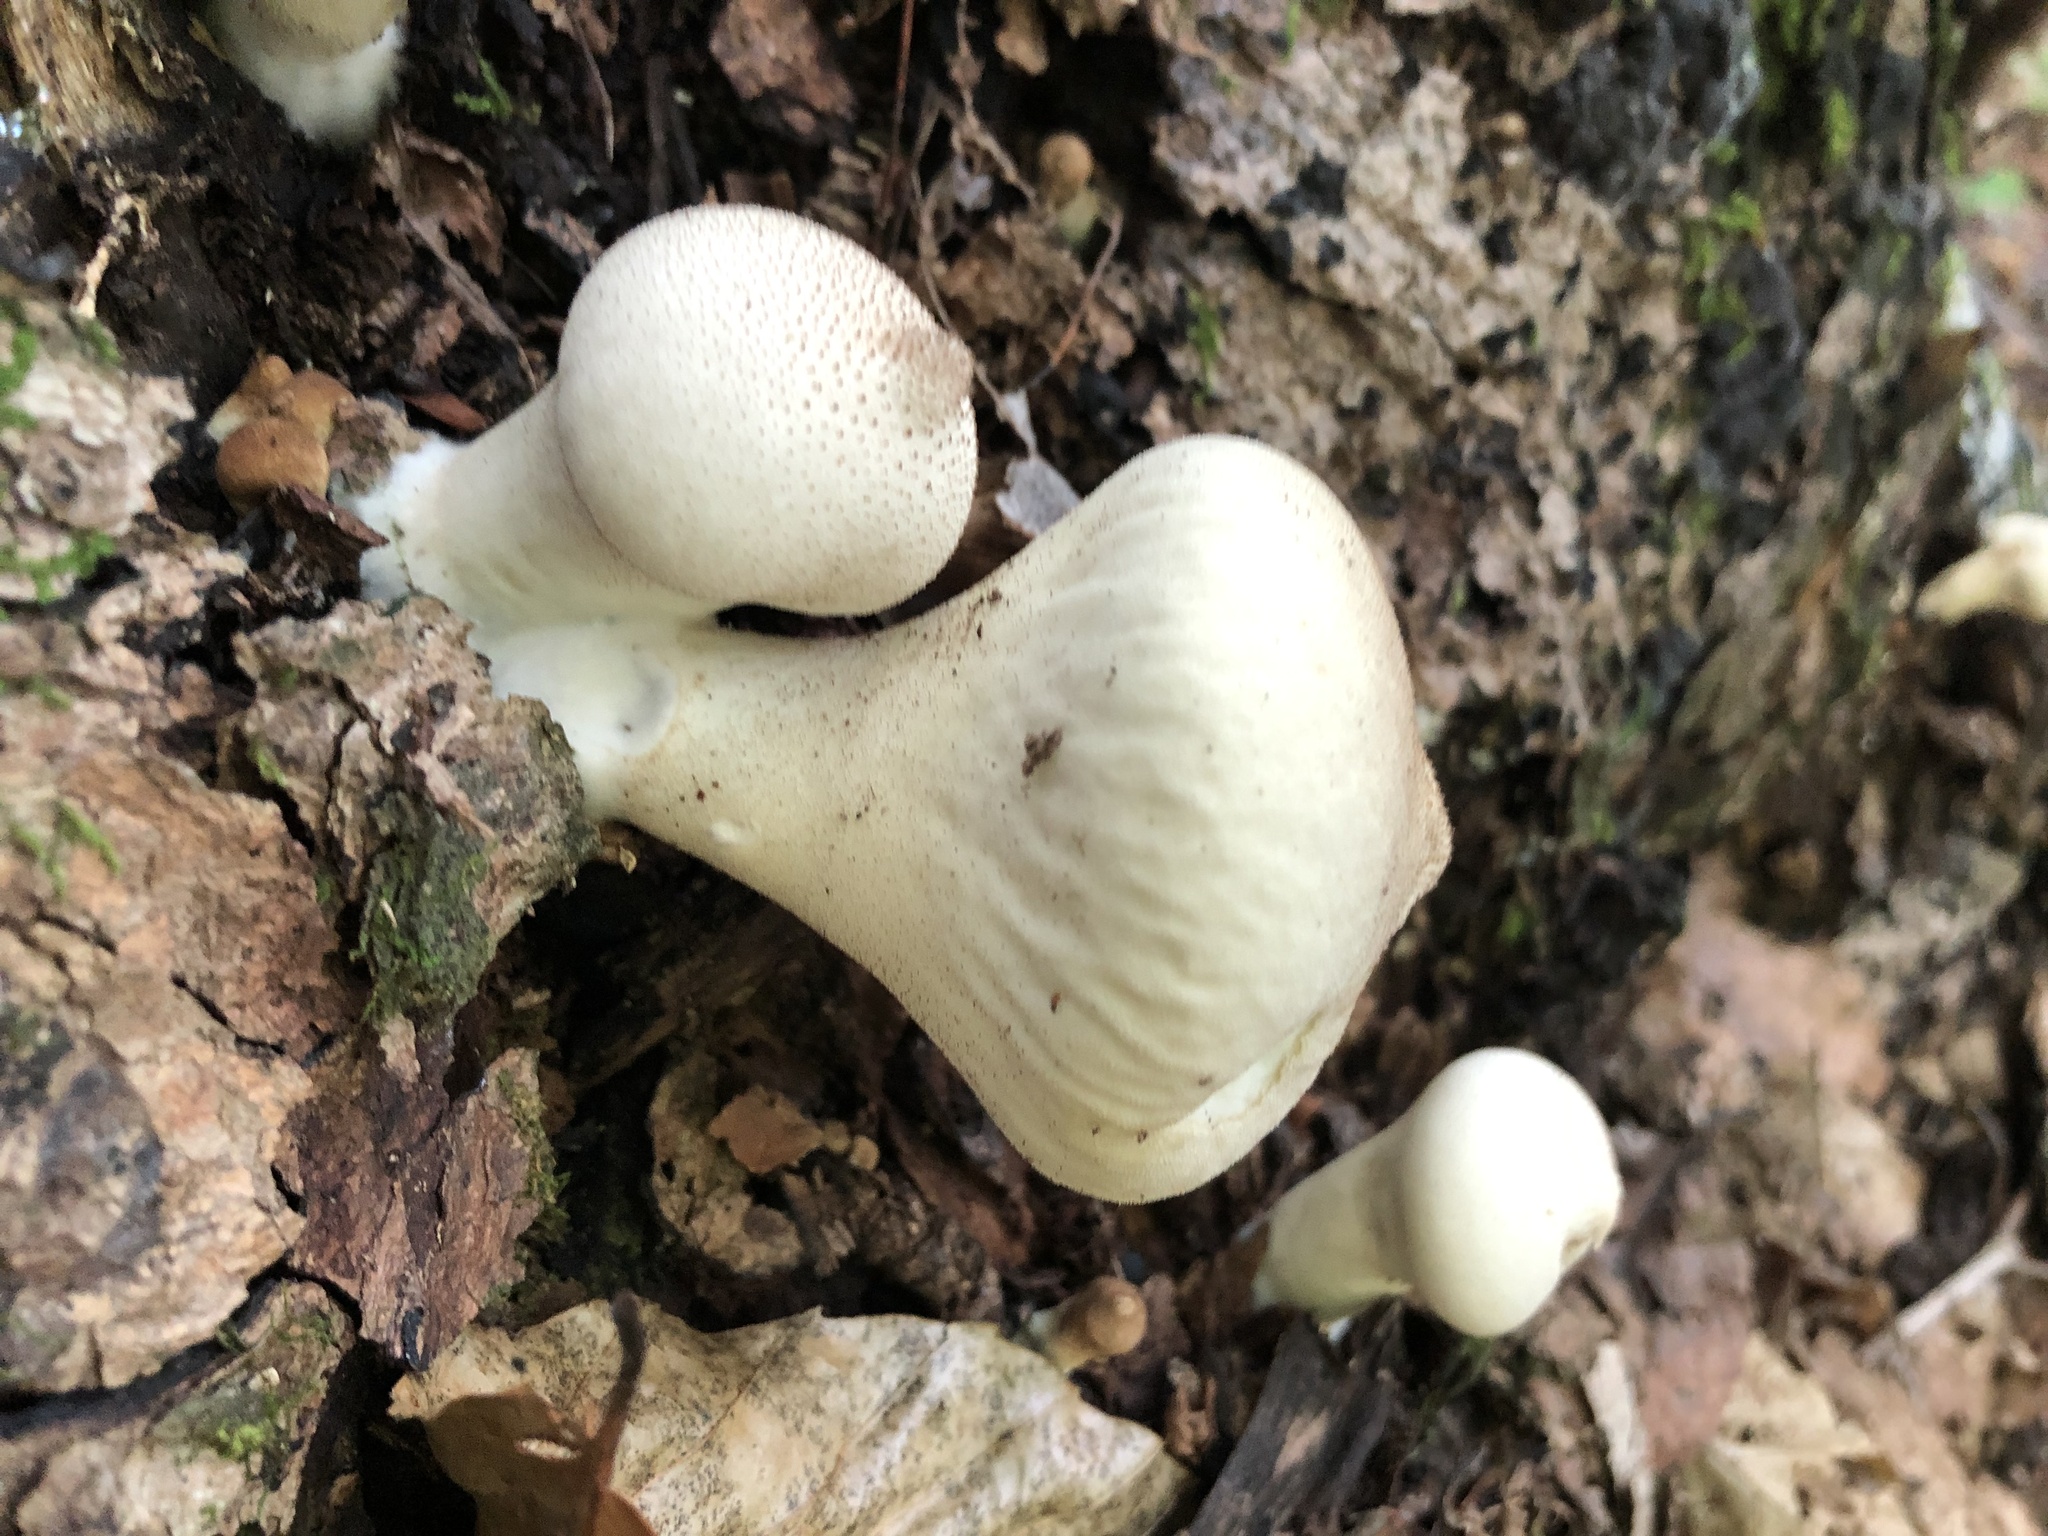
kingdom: Fungi
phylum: Basidiomycota
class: Agaricomycetes
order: Agaricales
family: Lycoperdaceae
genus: Lycoperdon
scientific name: Lycoperdon perlatum
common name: Common puffball
